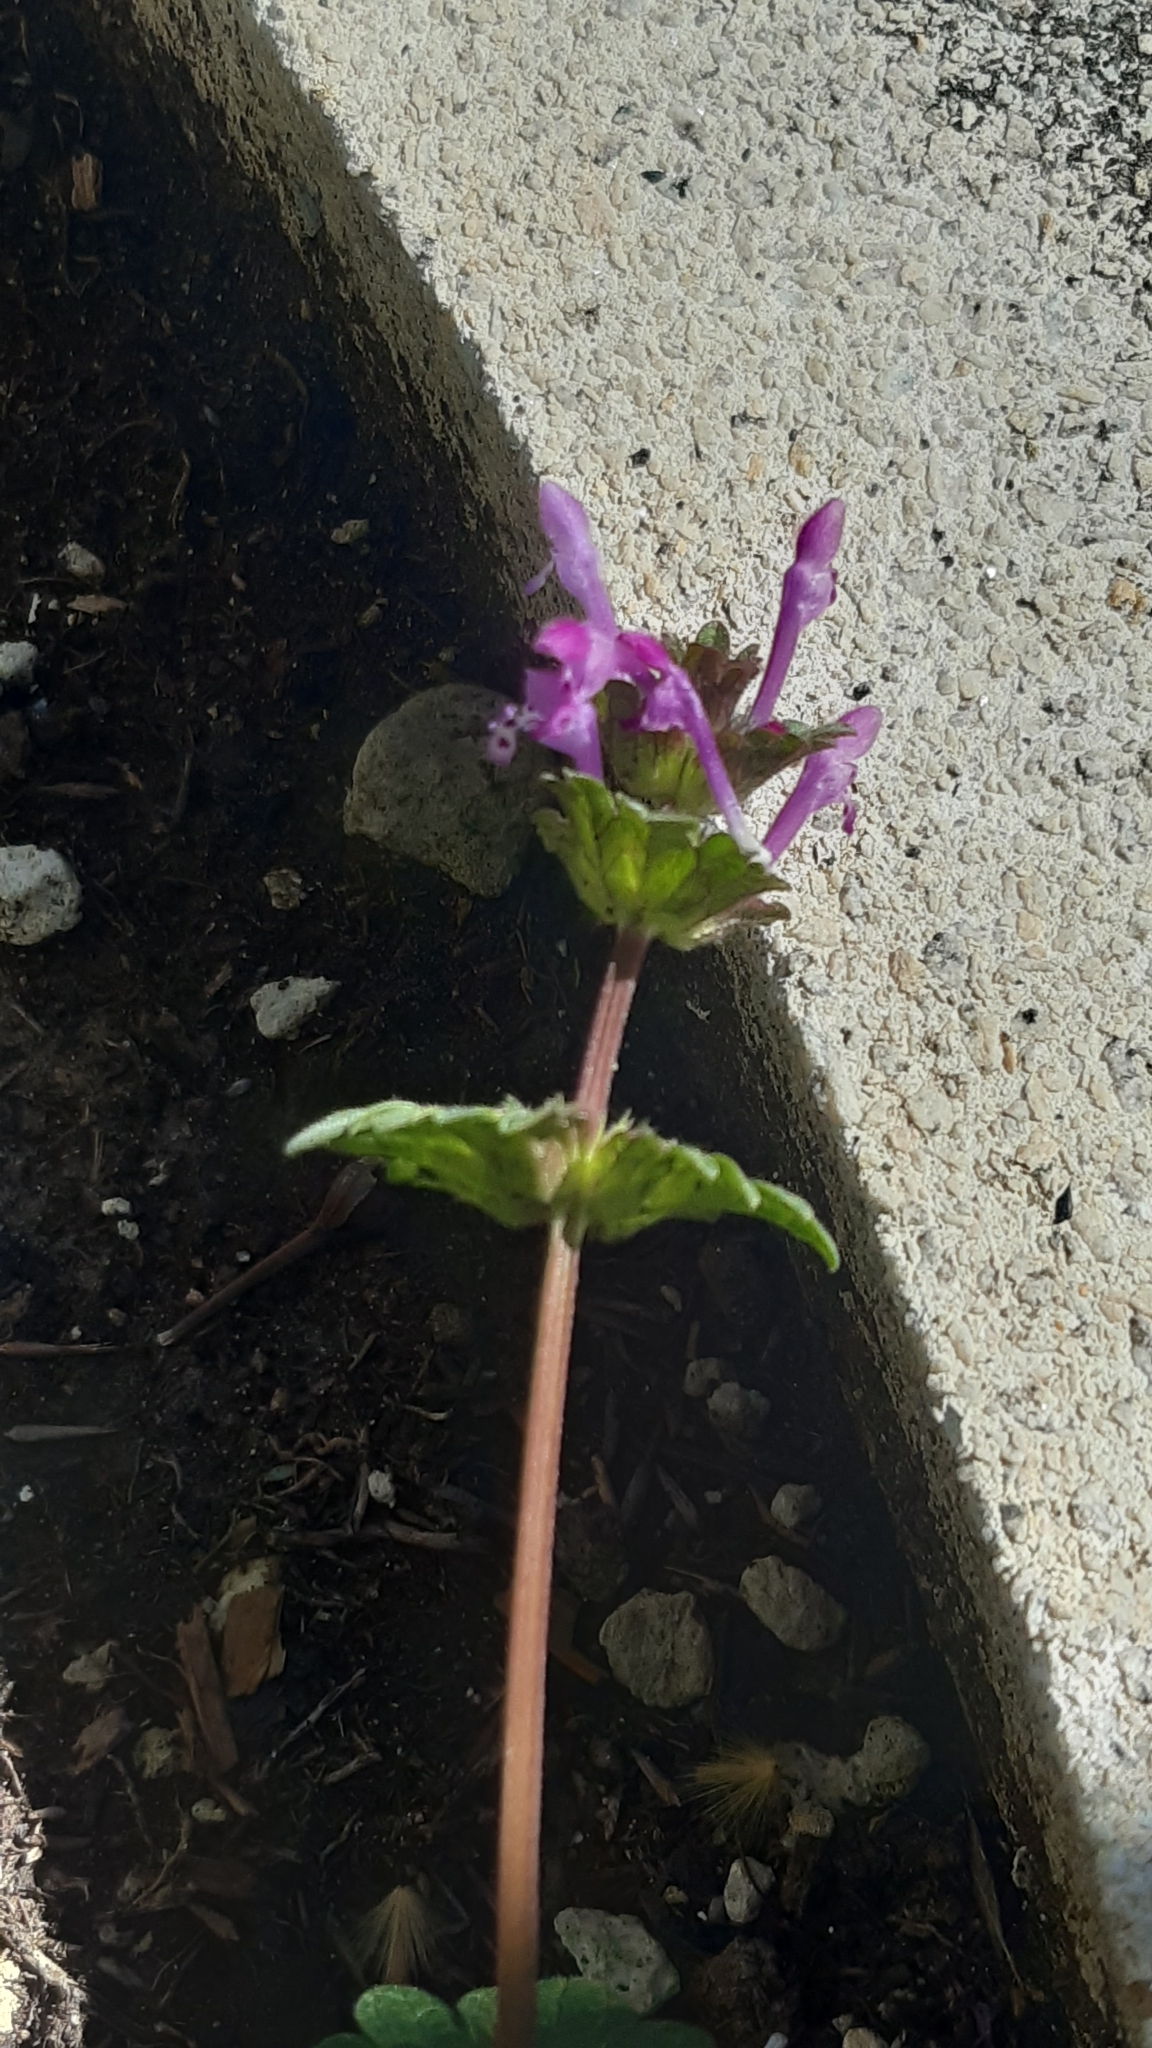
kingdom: Plantae
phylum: Tracheophyta
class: Magnoliopsida
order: Lamiales
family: Lamiaceae
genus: Lamium
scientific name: Lamium amplexicaule
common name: Henbit dead-nettle
